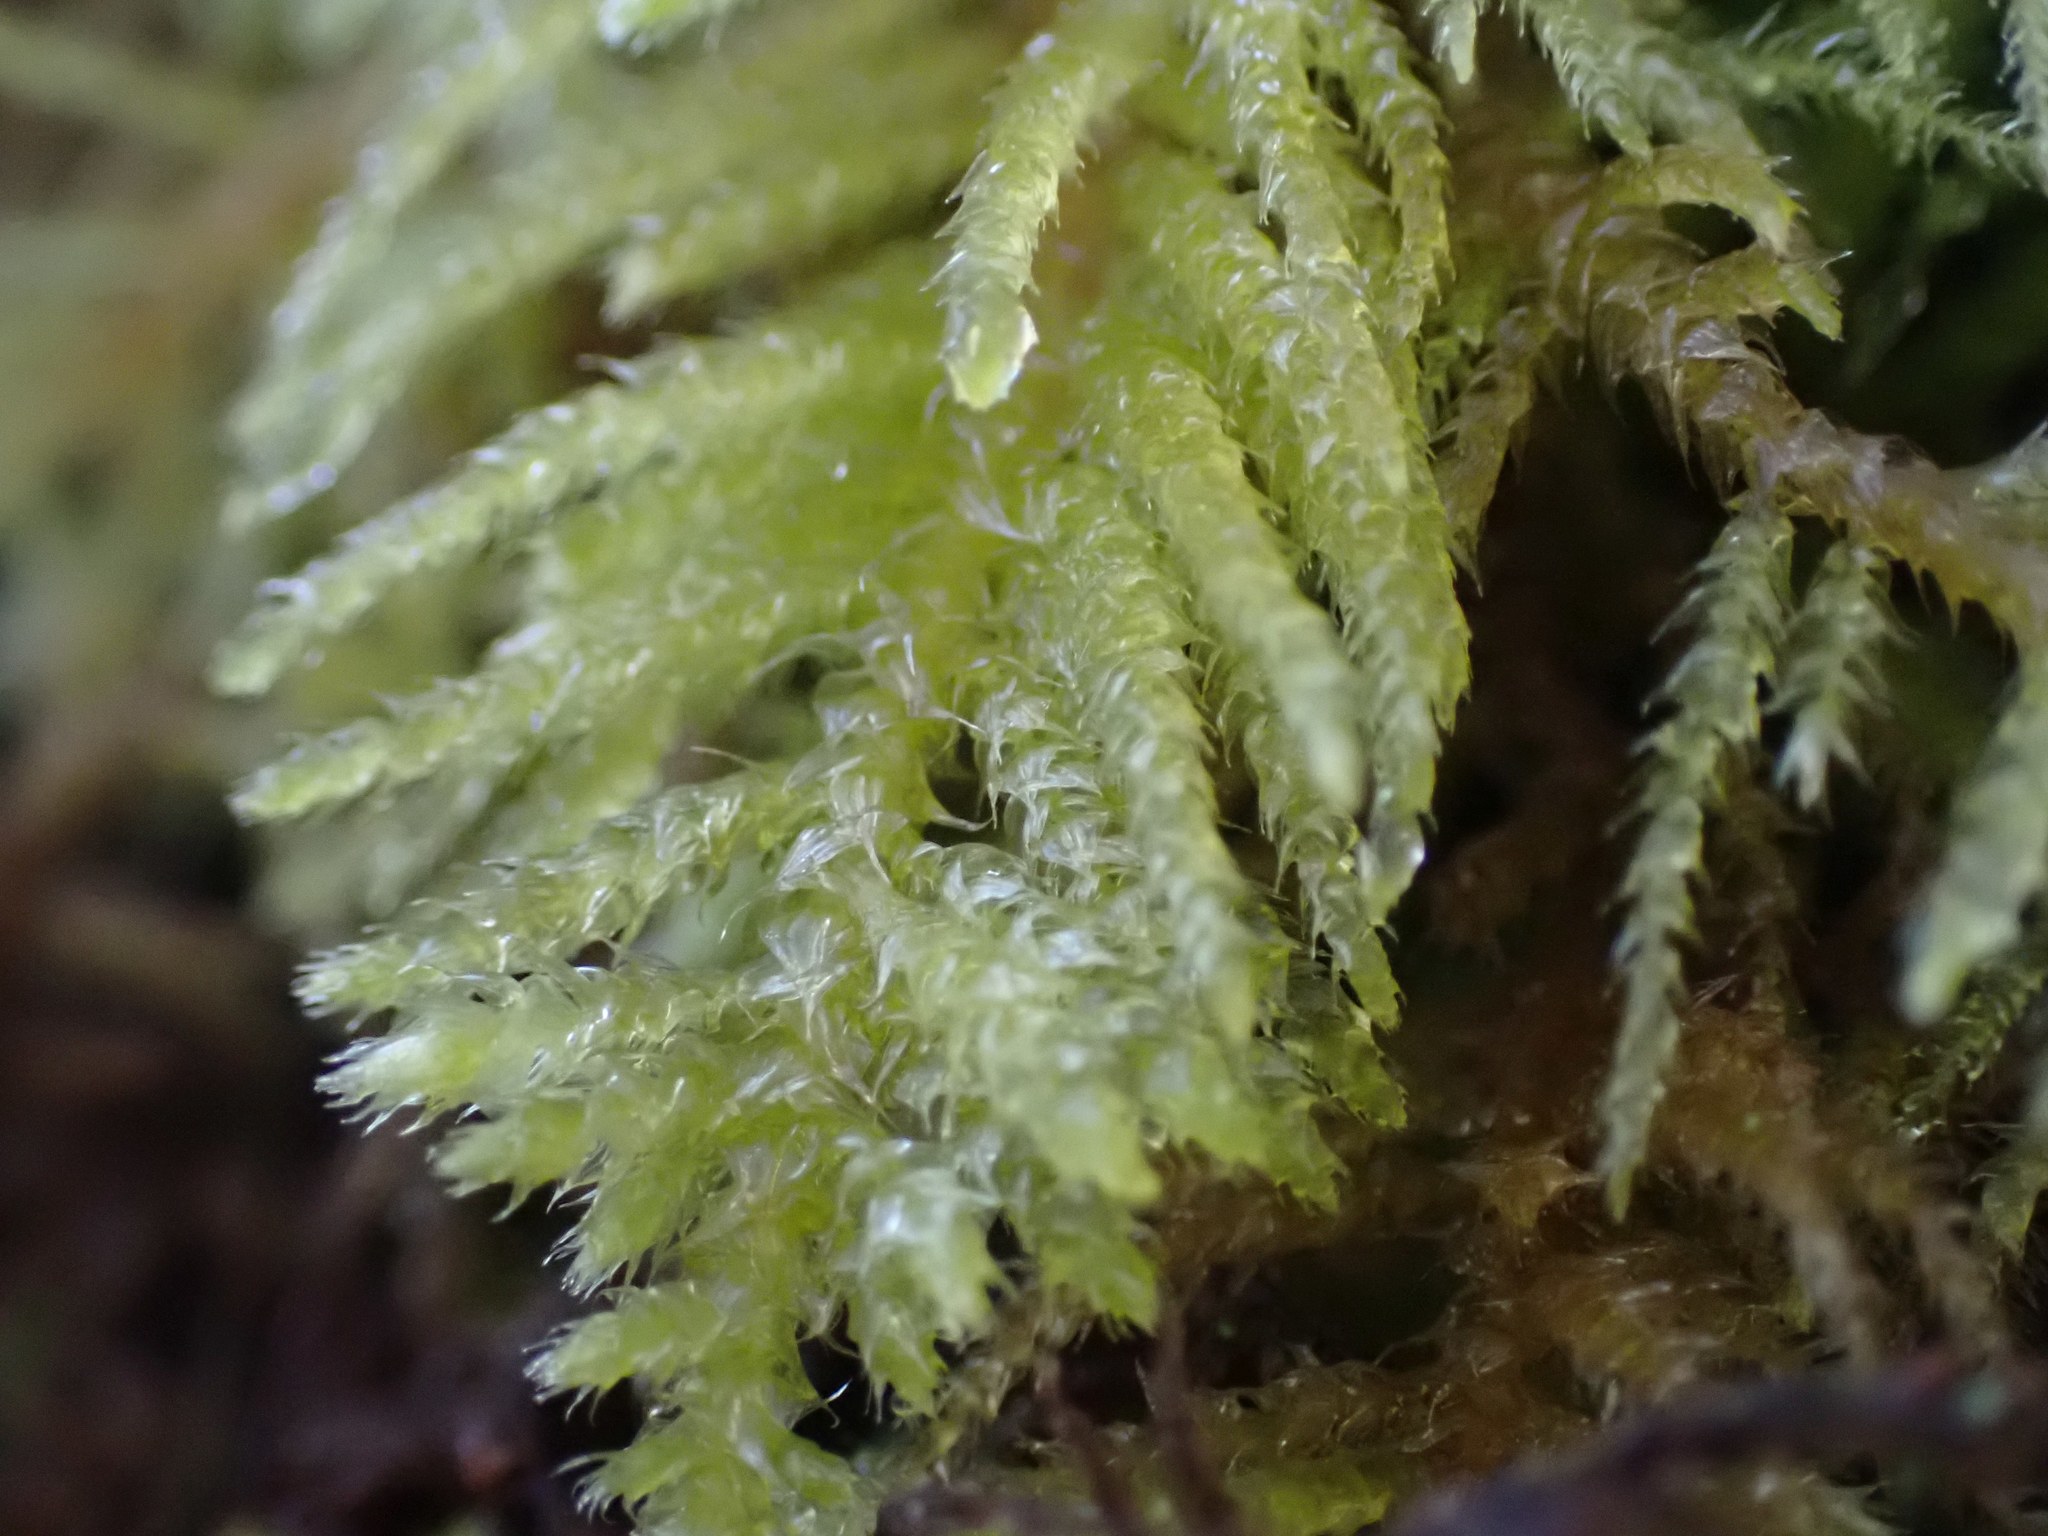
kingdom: Plantae
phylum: Bryophyta
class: Bryopsida
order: Hypnales
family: Brachytheciaceae
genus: Kindbergia
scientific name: Kindbergia oregana
